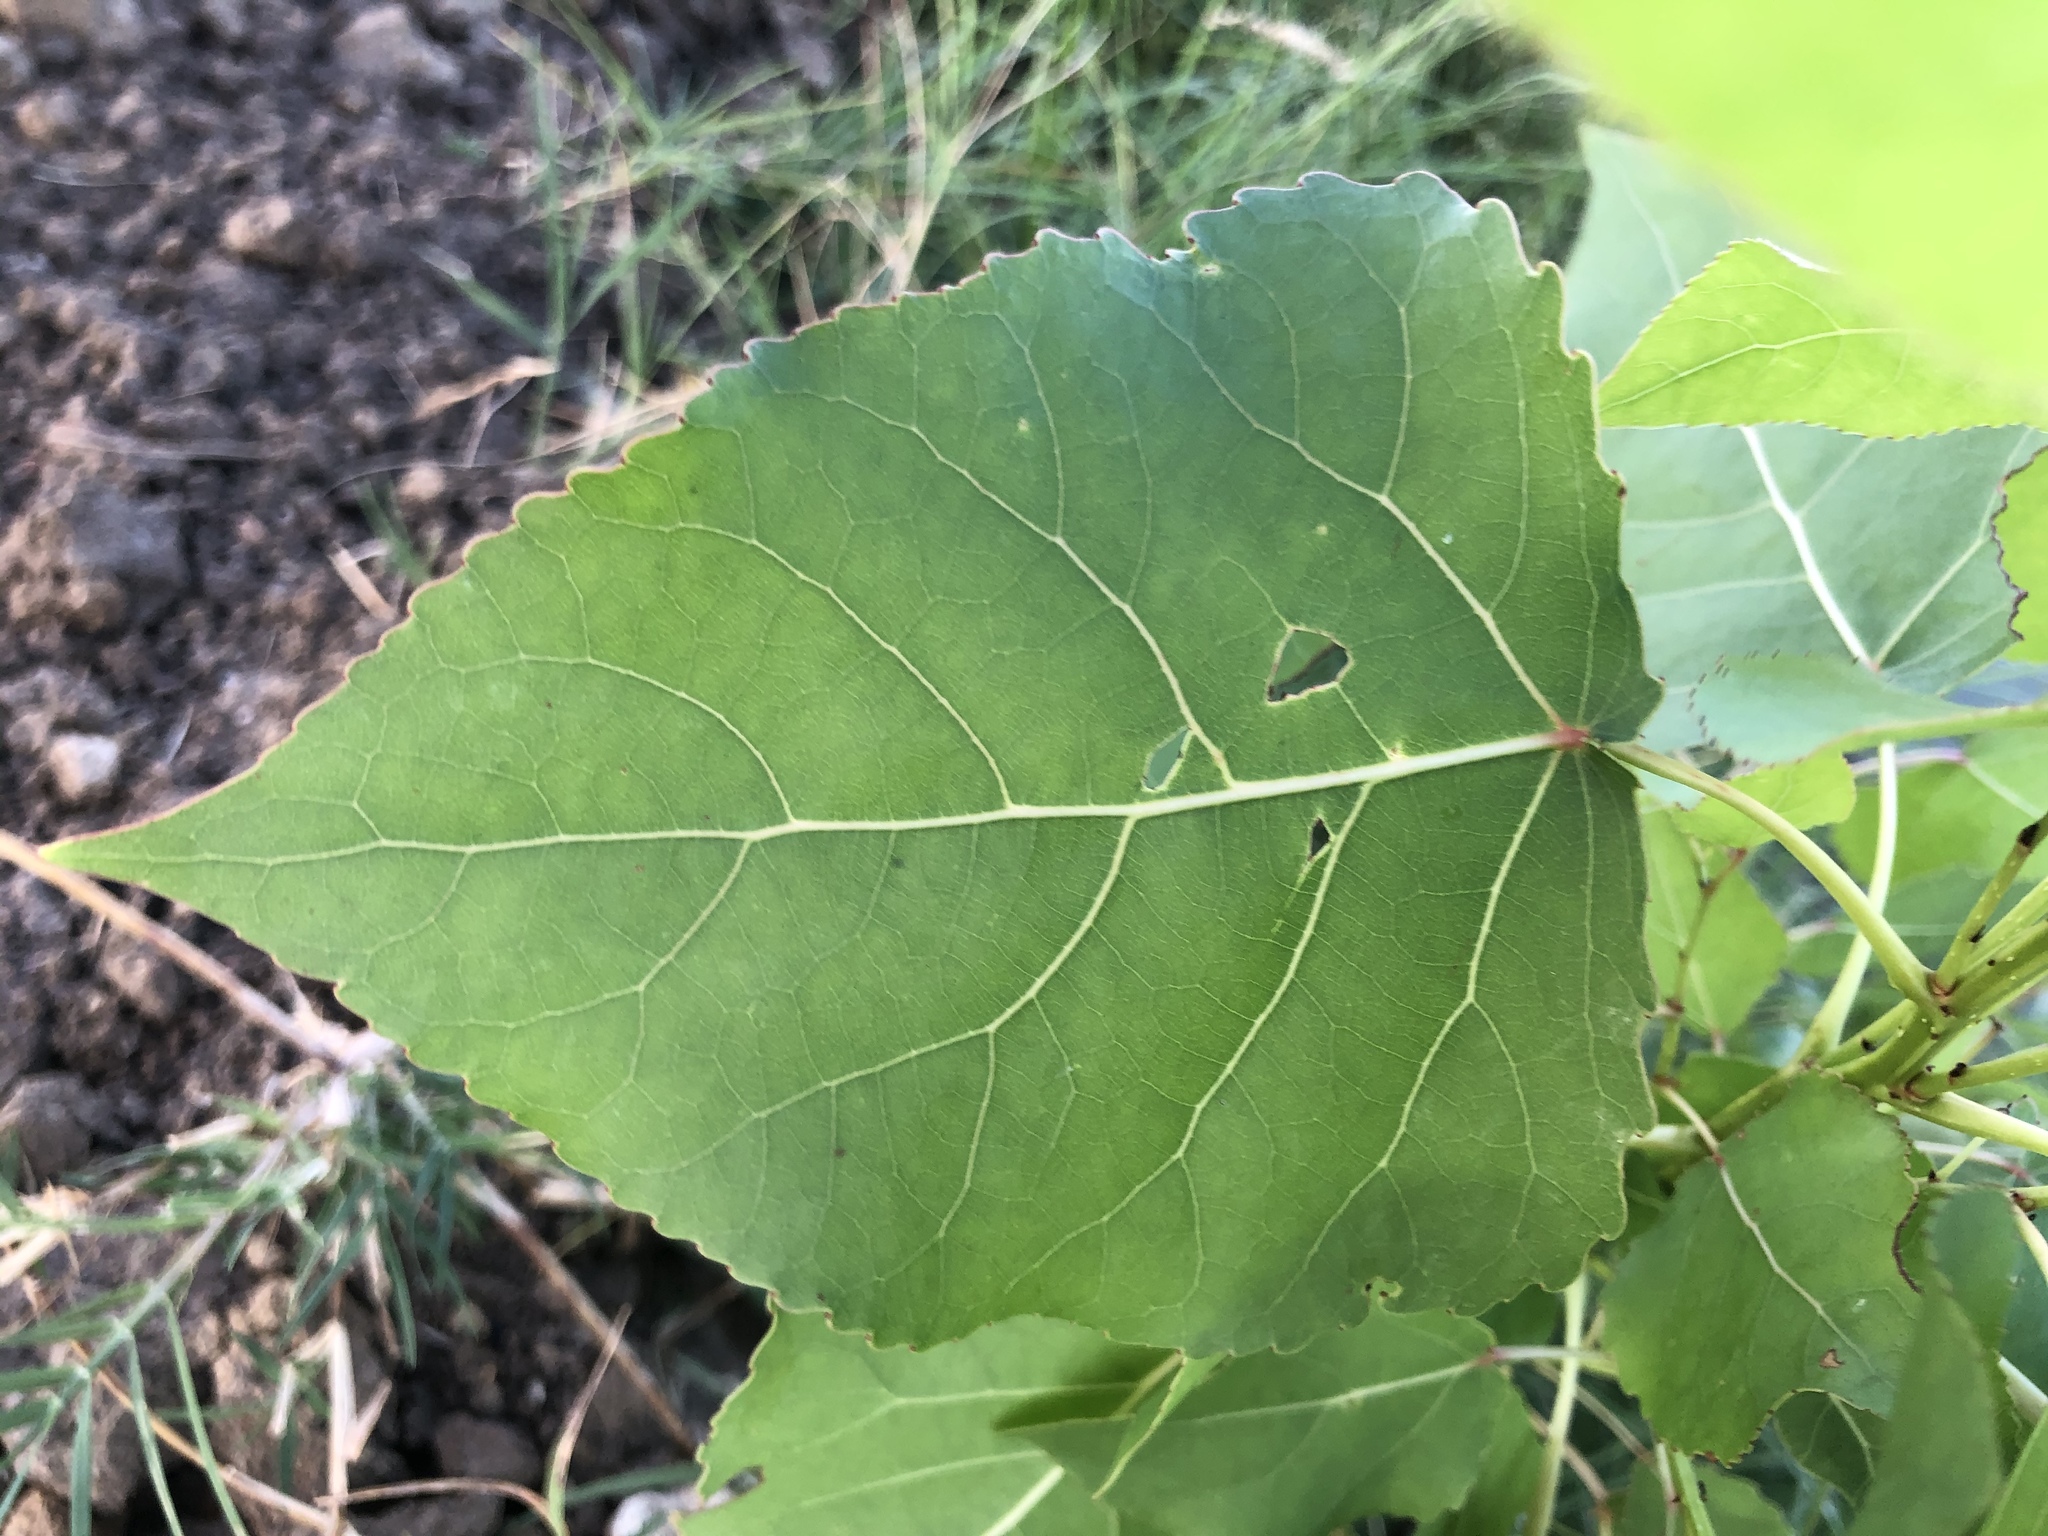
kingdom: Plantae
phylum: Tracheophyta
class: Magnoliopsida
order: Malpighiales
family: Salicaceae
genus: Populus
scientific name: Populus deltoides
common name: Eastern cottonwood
